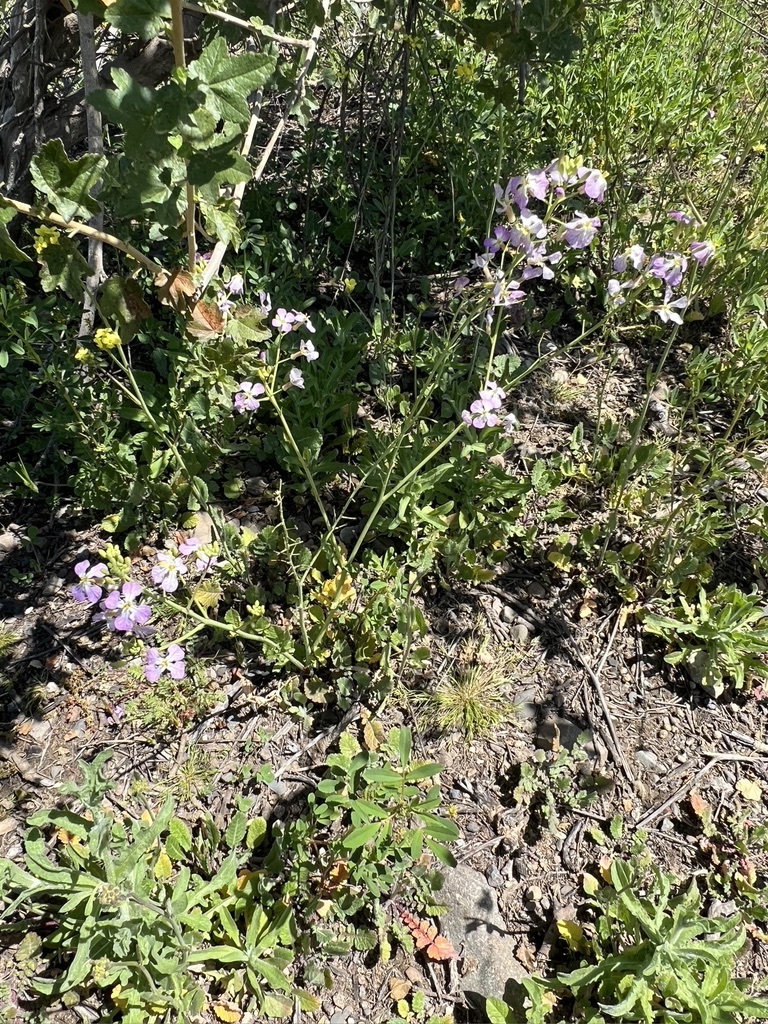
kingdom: Plantae
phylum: Tracheophyta
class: Magnoliopsida
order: Brassicales
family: Brassicaceae
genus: Raphanus
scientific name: Raphanus sativus
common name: Cultivated radish
